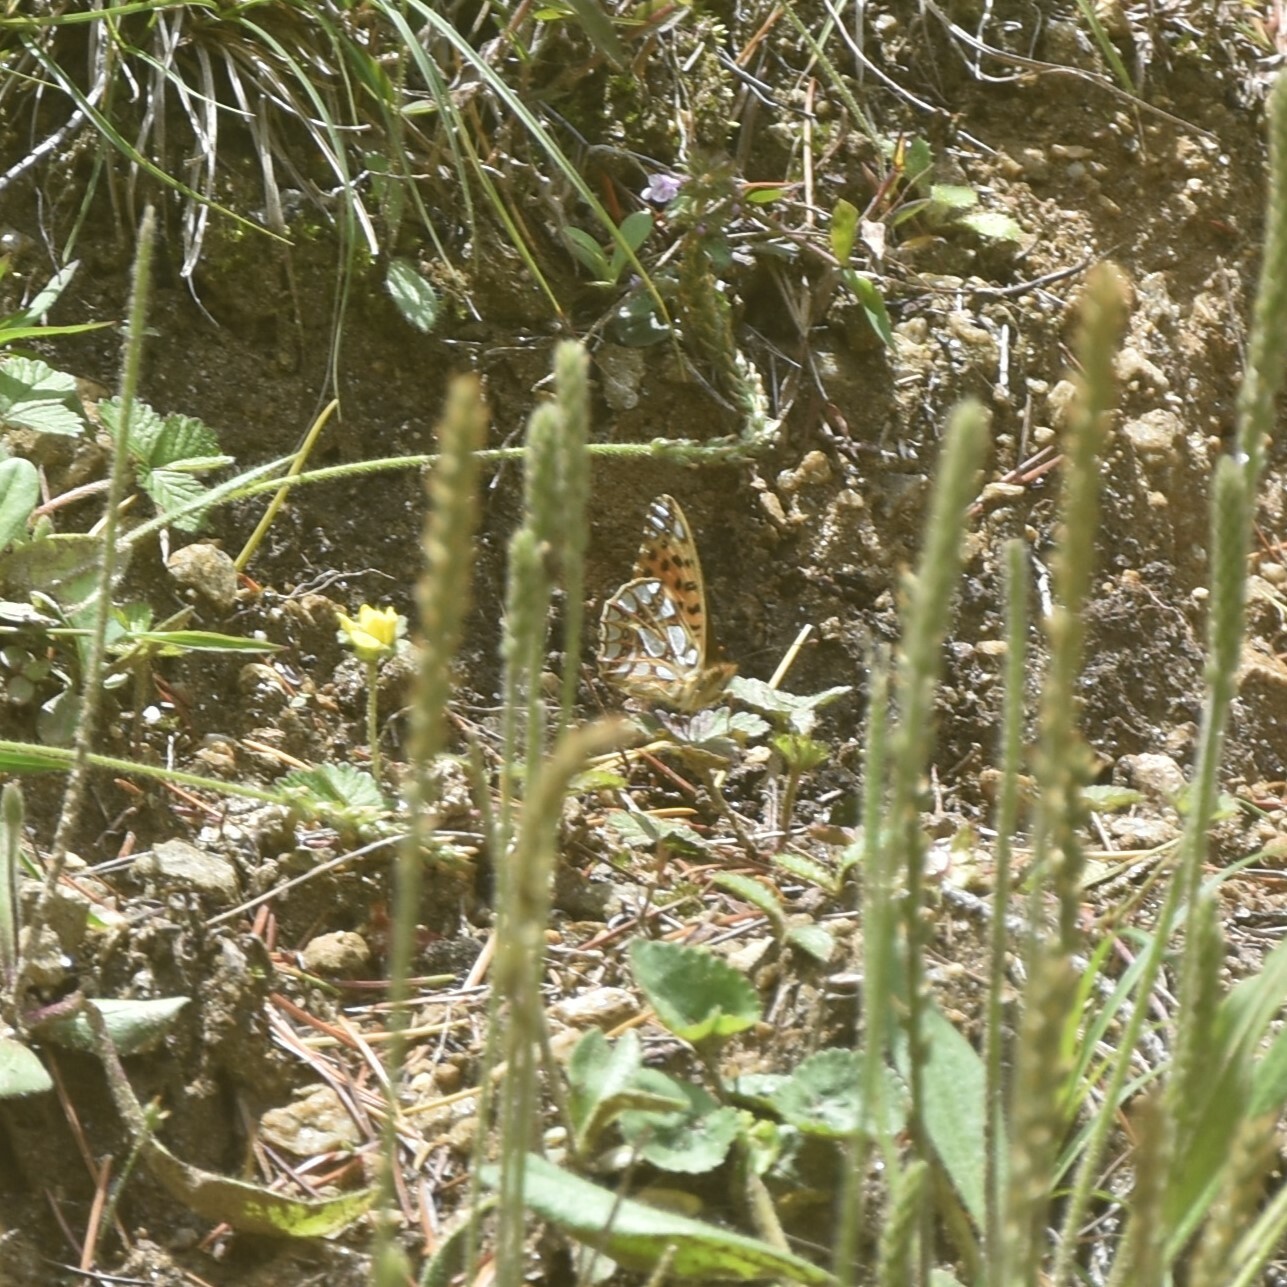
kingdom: Animalia
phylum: Arthropoda
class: Insecta
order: Lepidoptera
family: Nymphalidae
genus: Issoria
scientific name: Issoria
